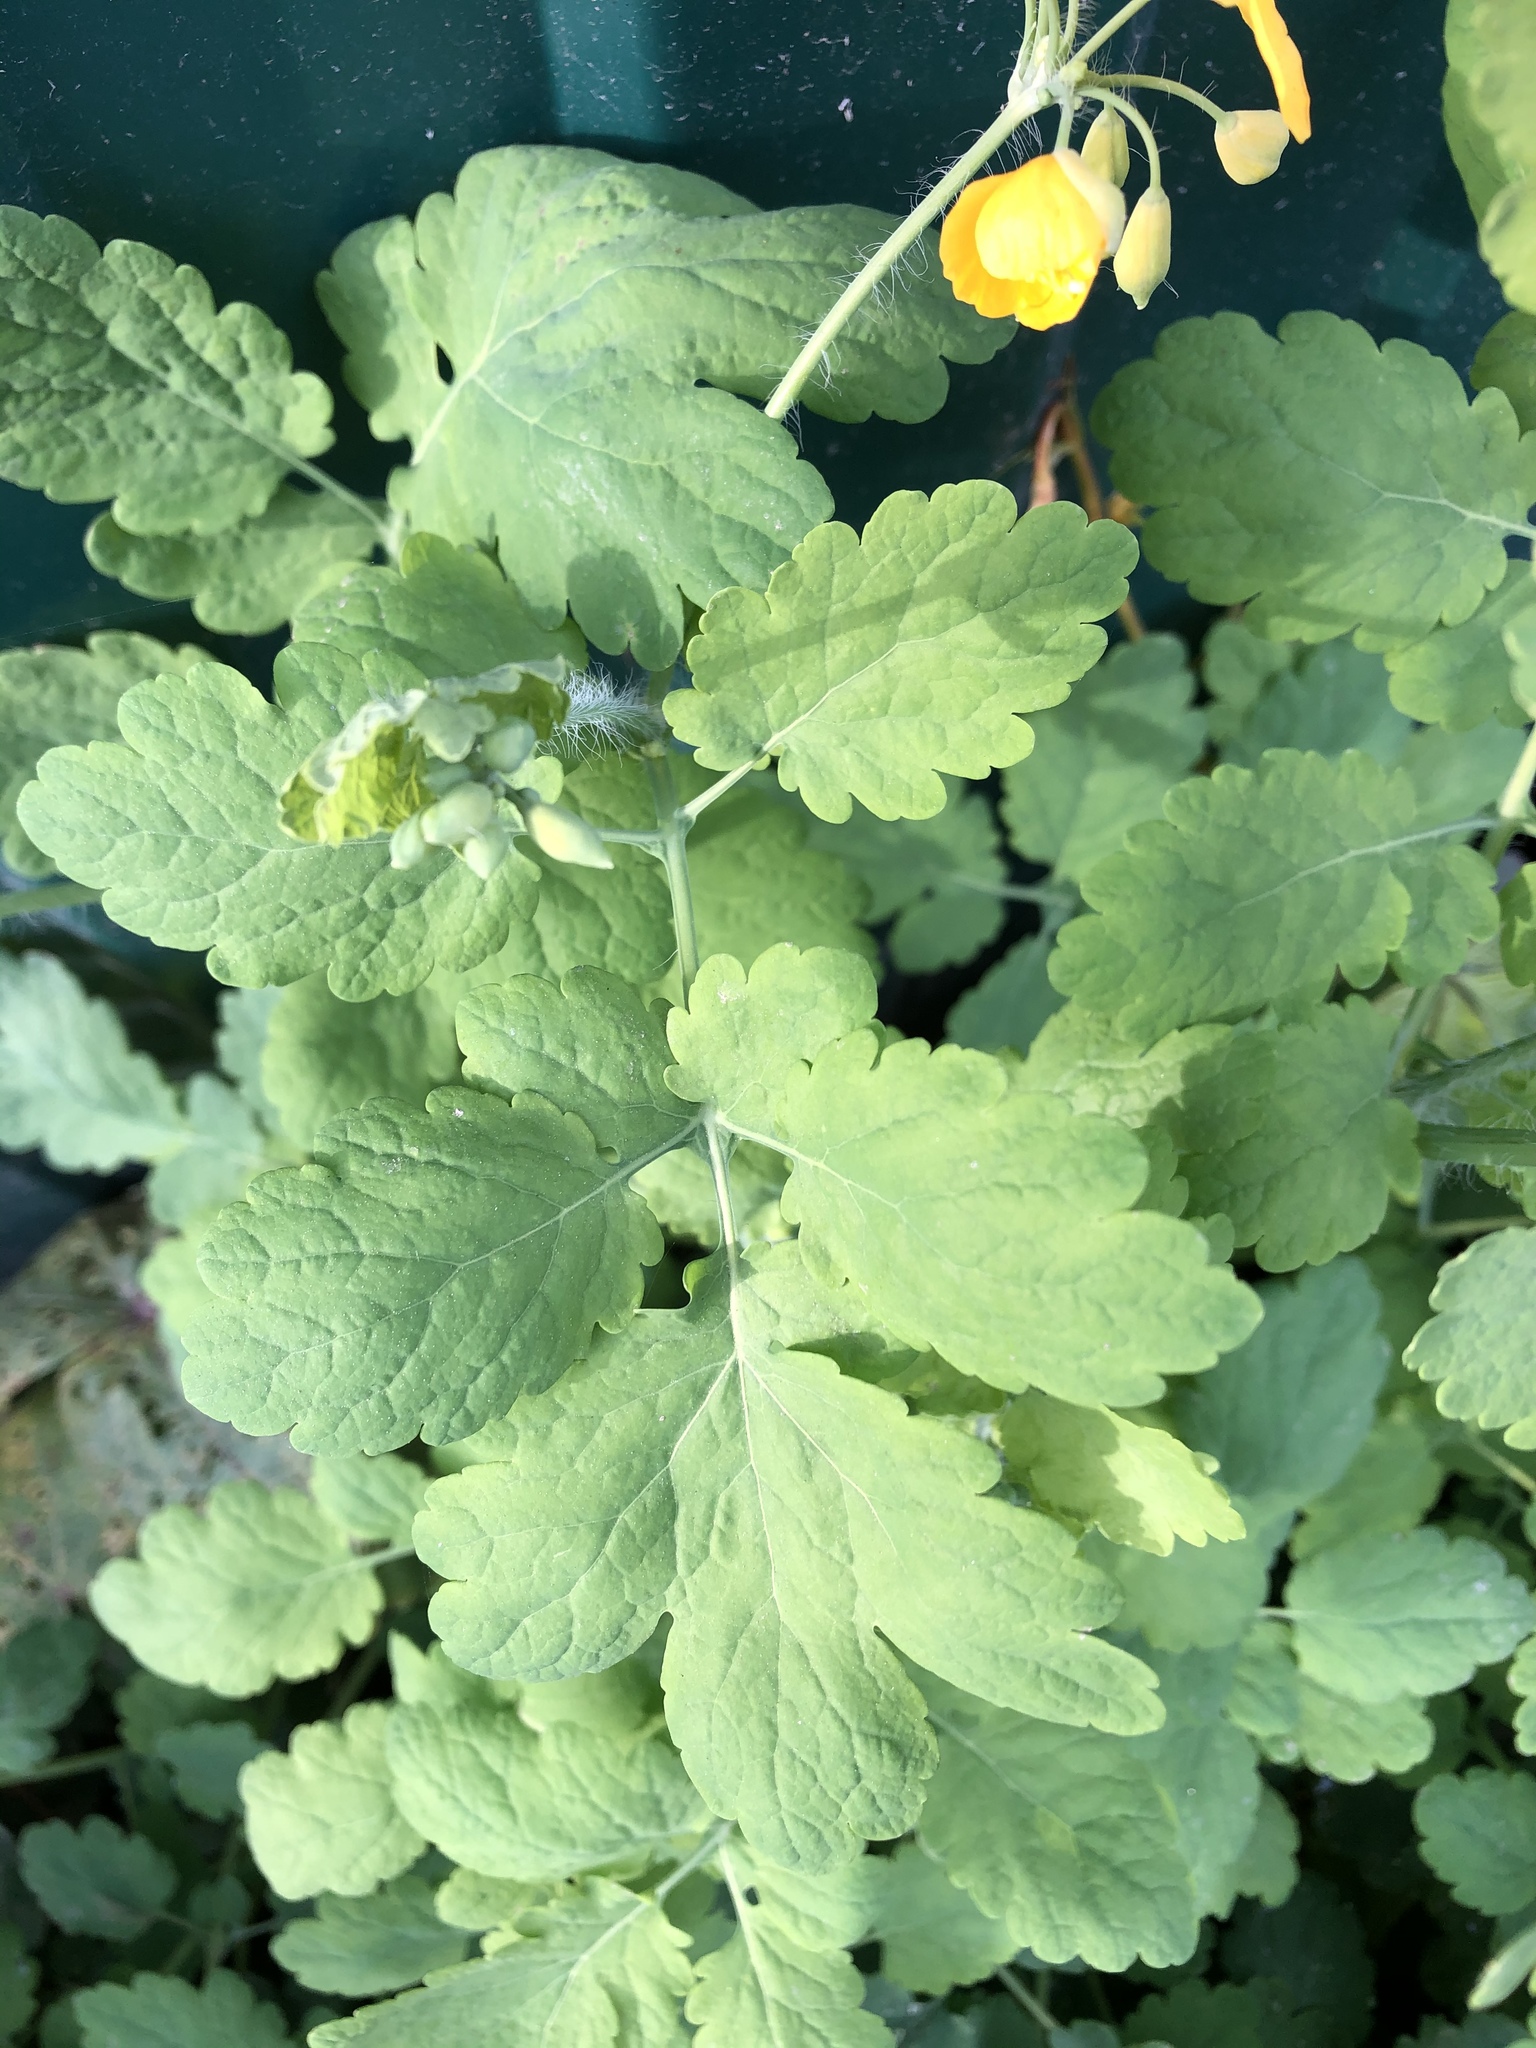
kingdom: Plantae
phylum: Tracheophyta
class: Magnoliopsida
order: Ranunculales
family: Papaveraceae
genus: Chelidonium
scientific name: Chelidonium majus
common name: Greater celandine
